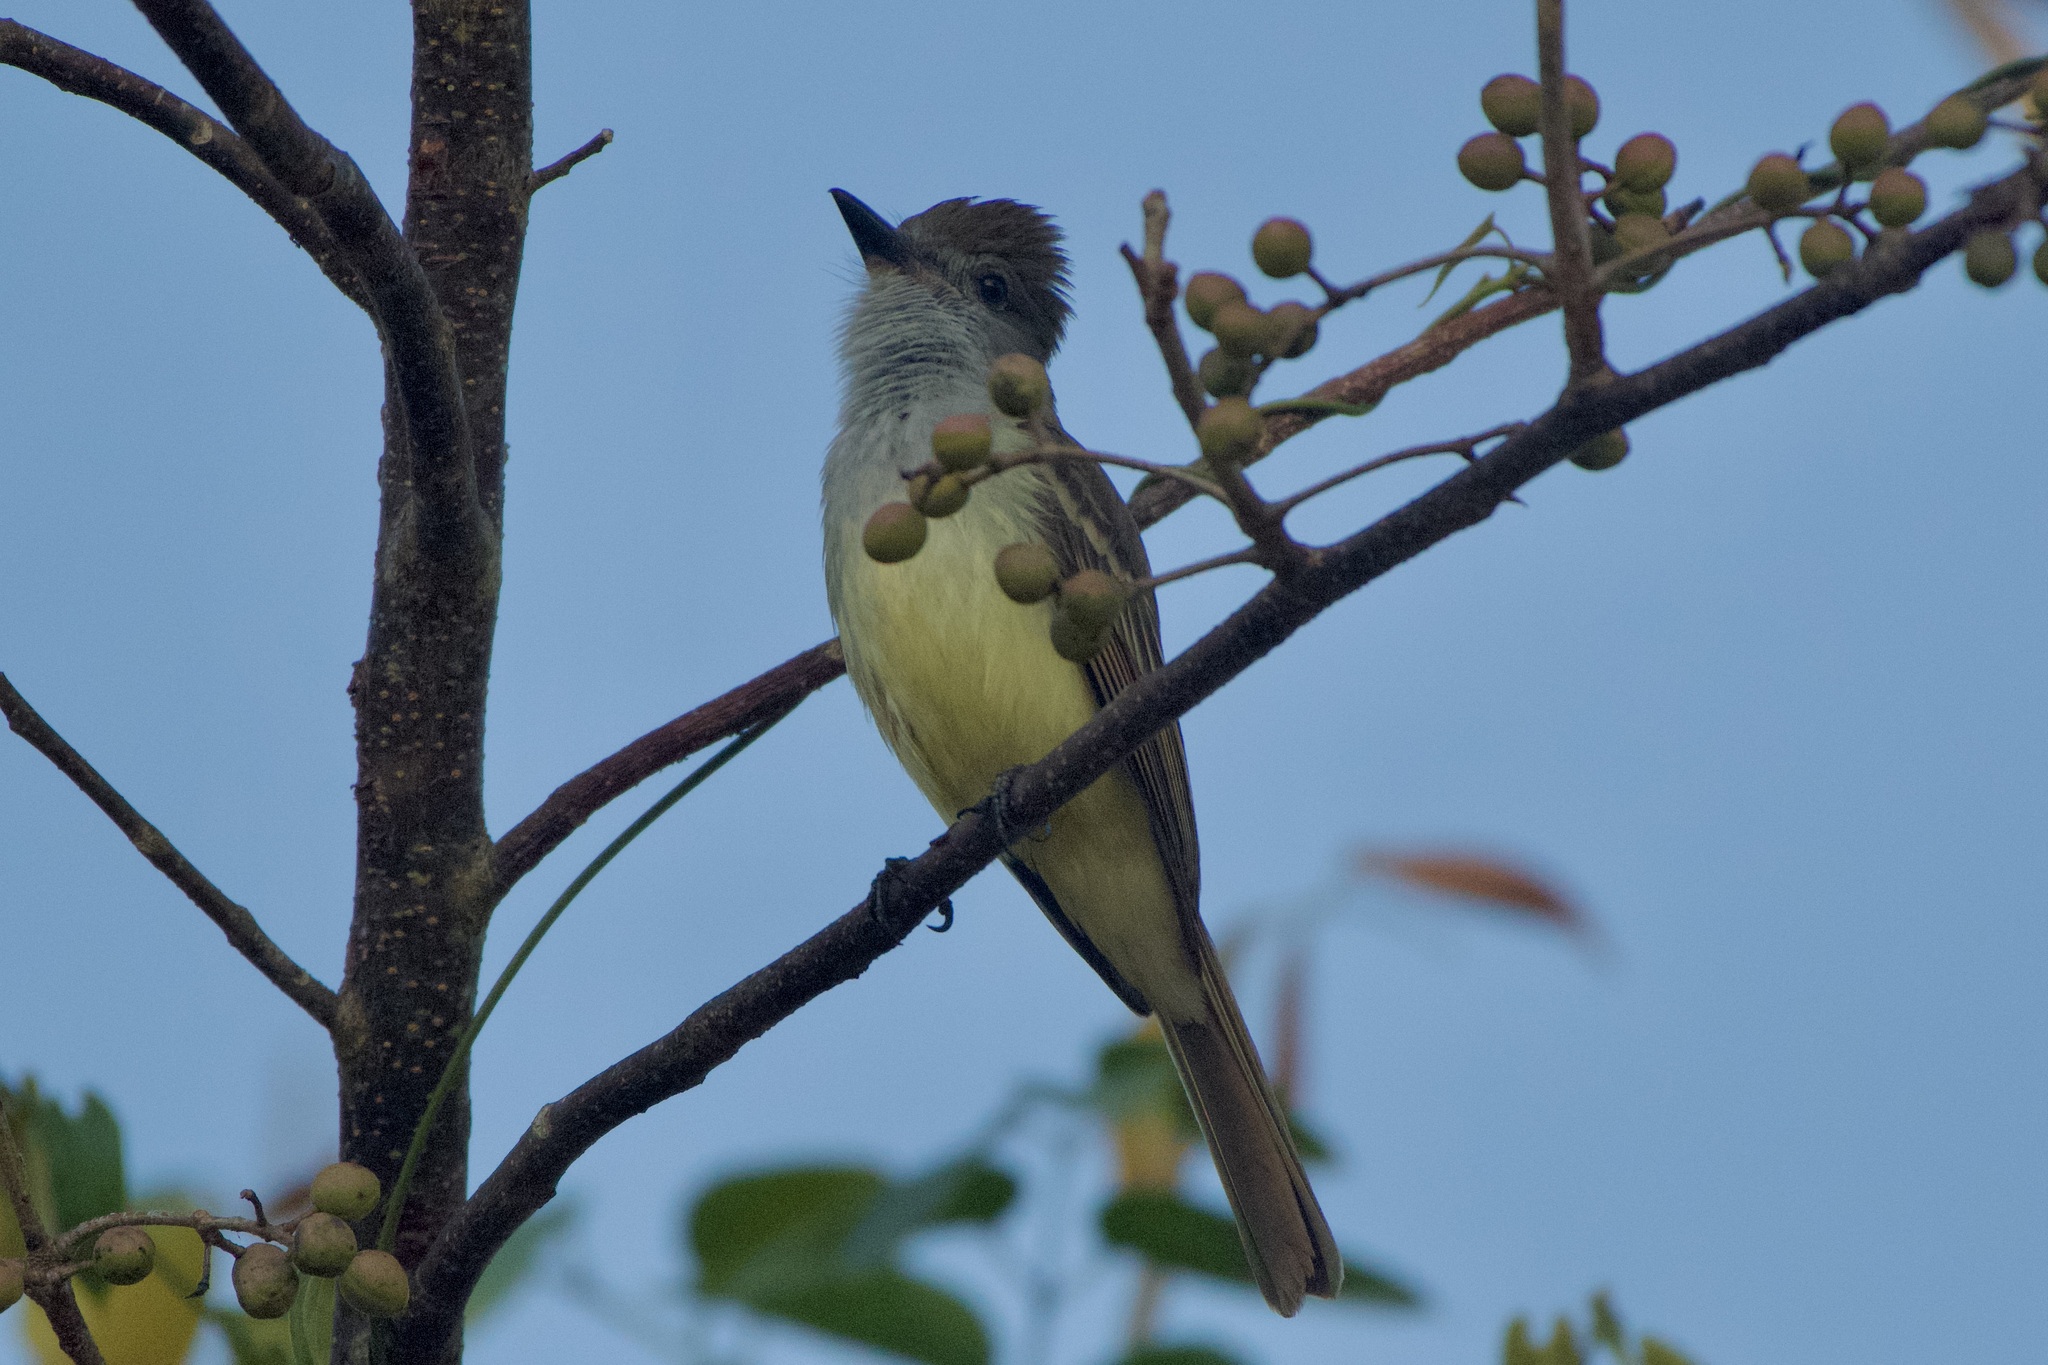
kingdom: Animalia
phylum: Chordata
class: Aves
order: Passeriformes
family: Tyrannidae
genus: Myiarchus
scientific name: Myiarchus tyrannulus
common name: Brown-crested flycatcher
